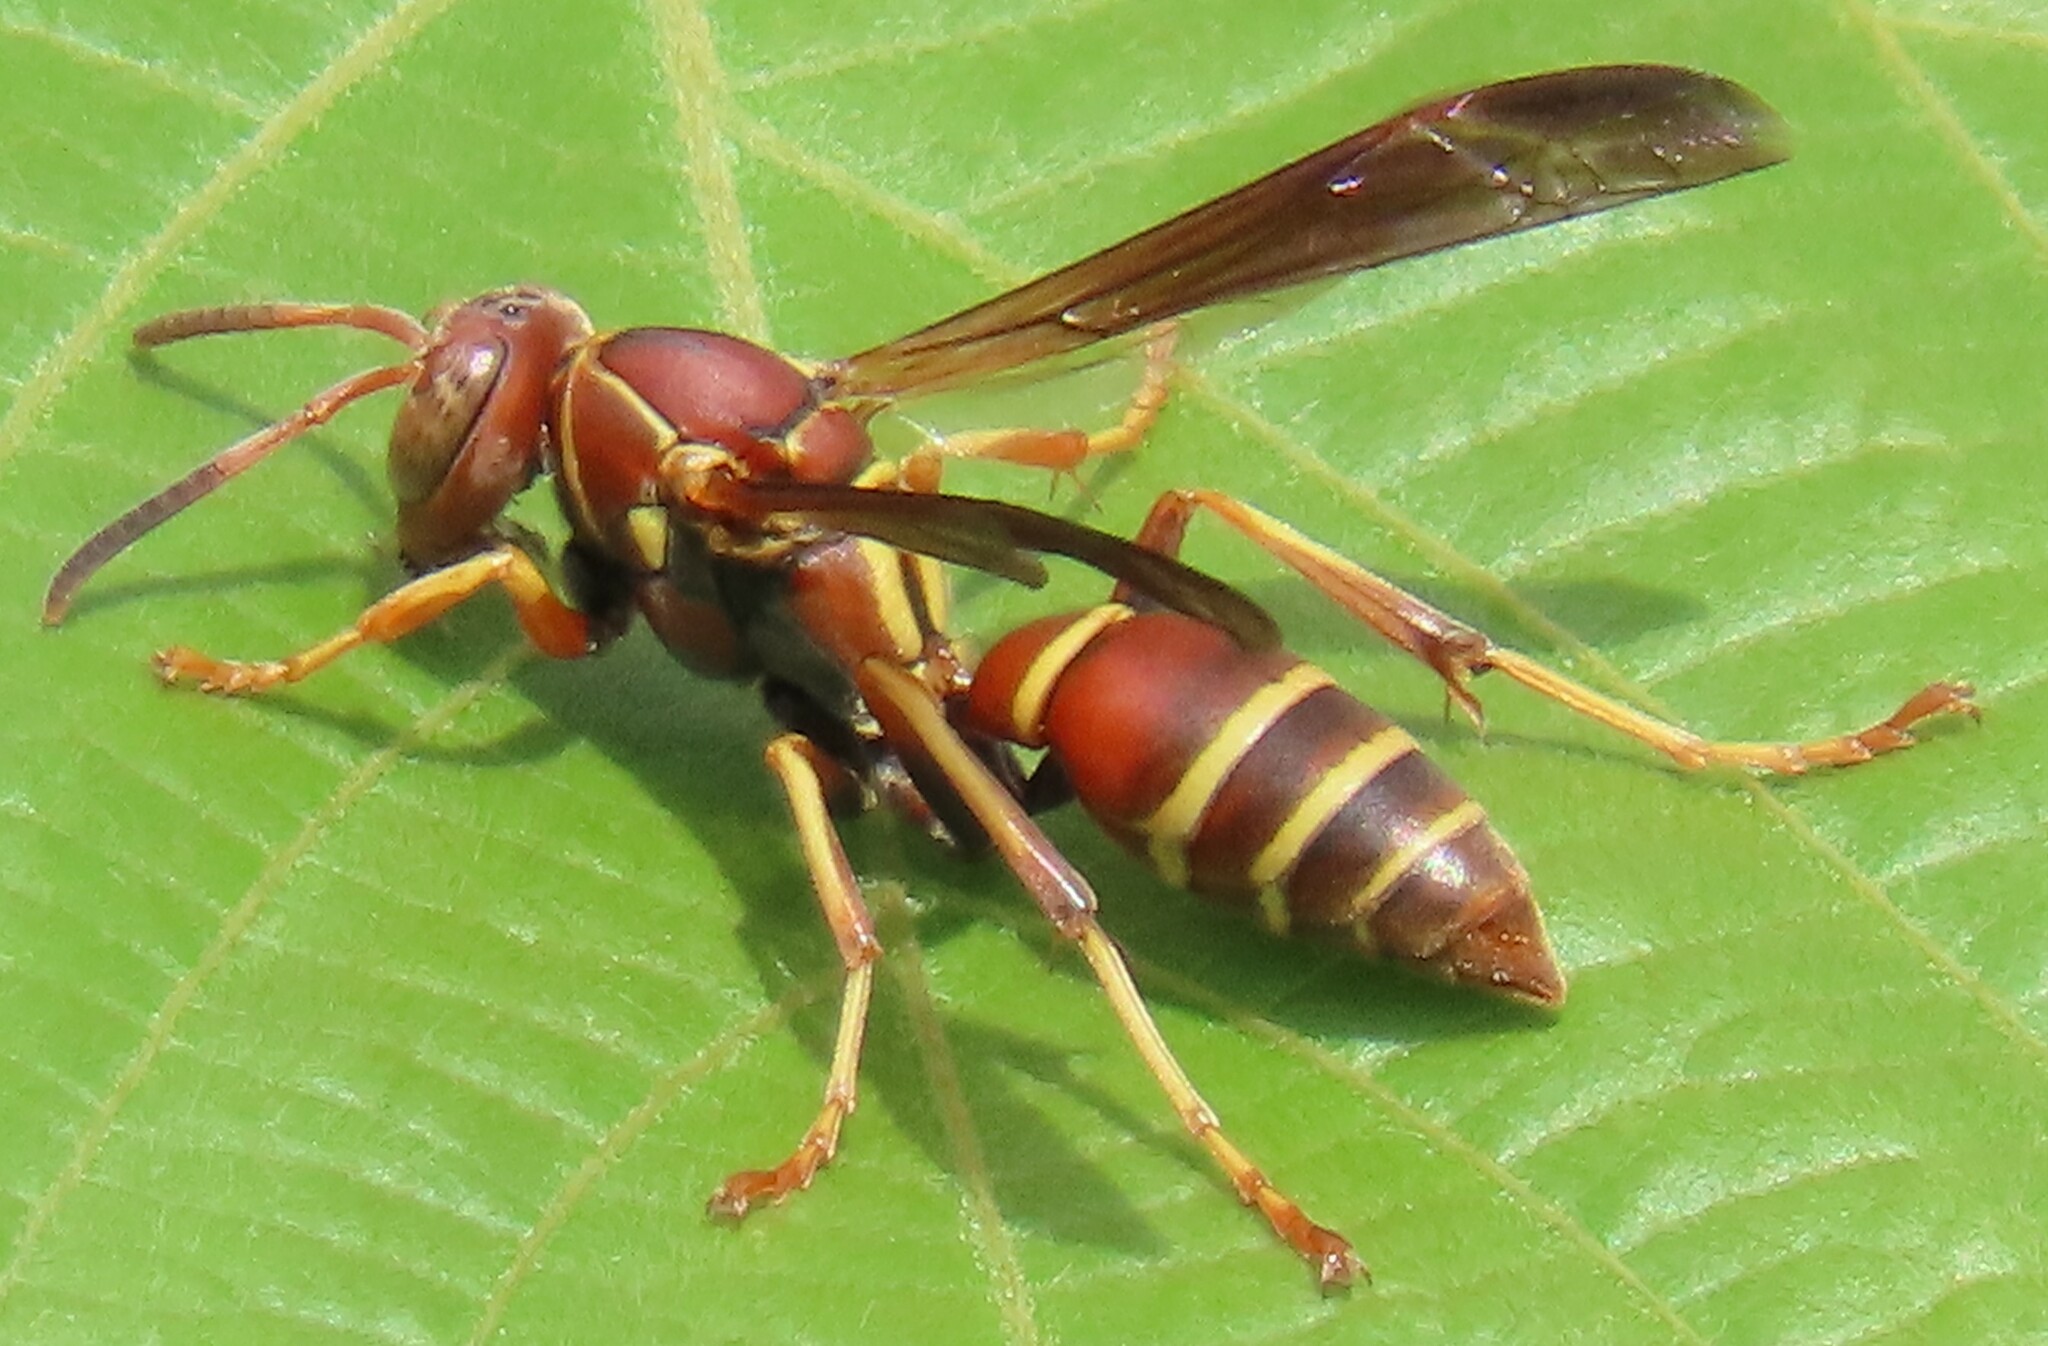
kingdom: Animalia
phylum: Arthropoda
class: Insecta
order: Hymenoptera
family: Eumenidae
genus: Polistes
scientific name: Polistes dorsalis
